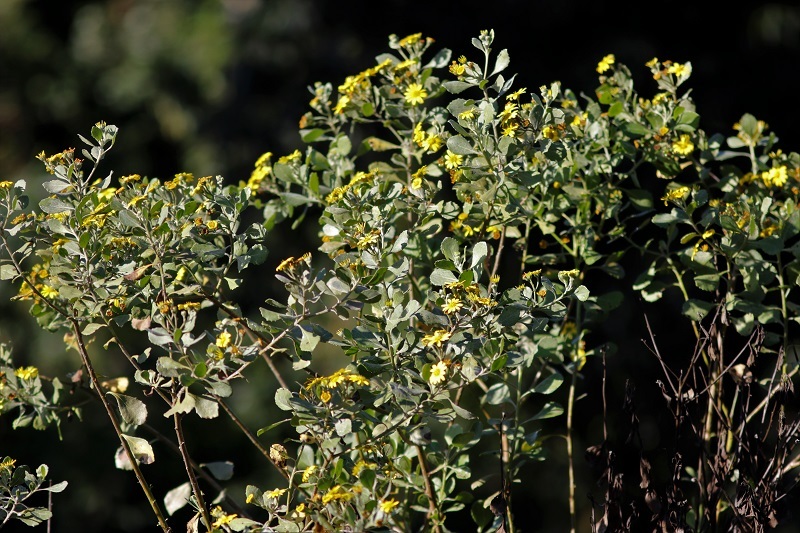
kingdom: Plantae
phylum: Tracheophyta
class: Magnoliopsida
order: Asterales
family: Asteraceae
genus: Osteospermum
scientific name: Osteospermum moniliferum
